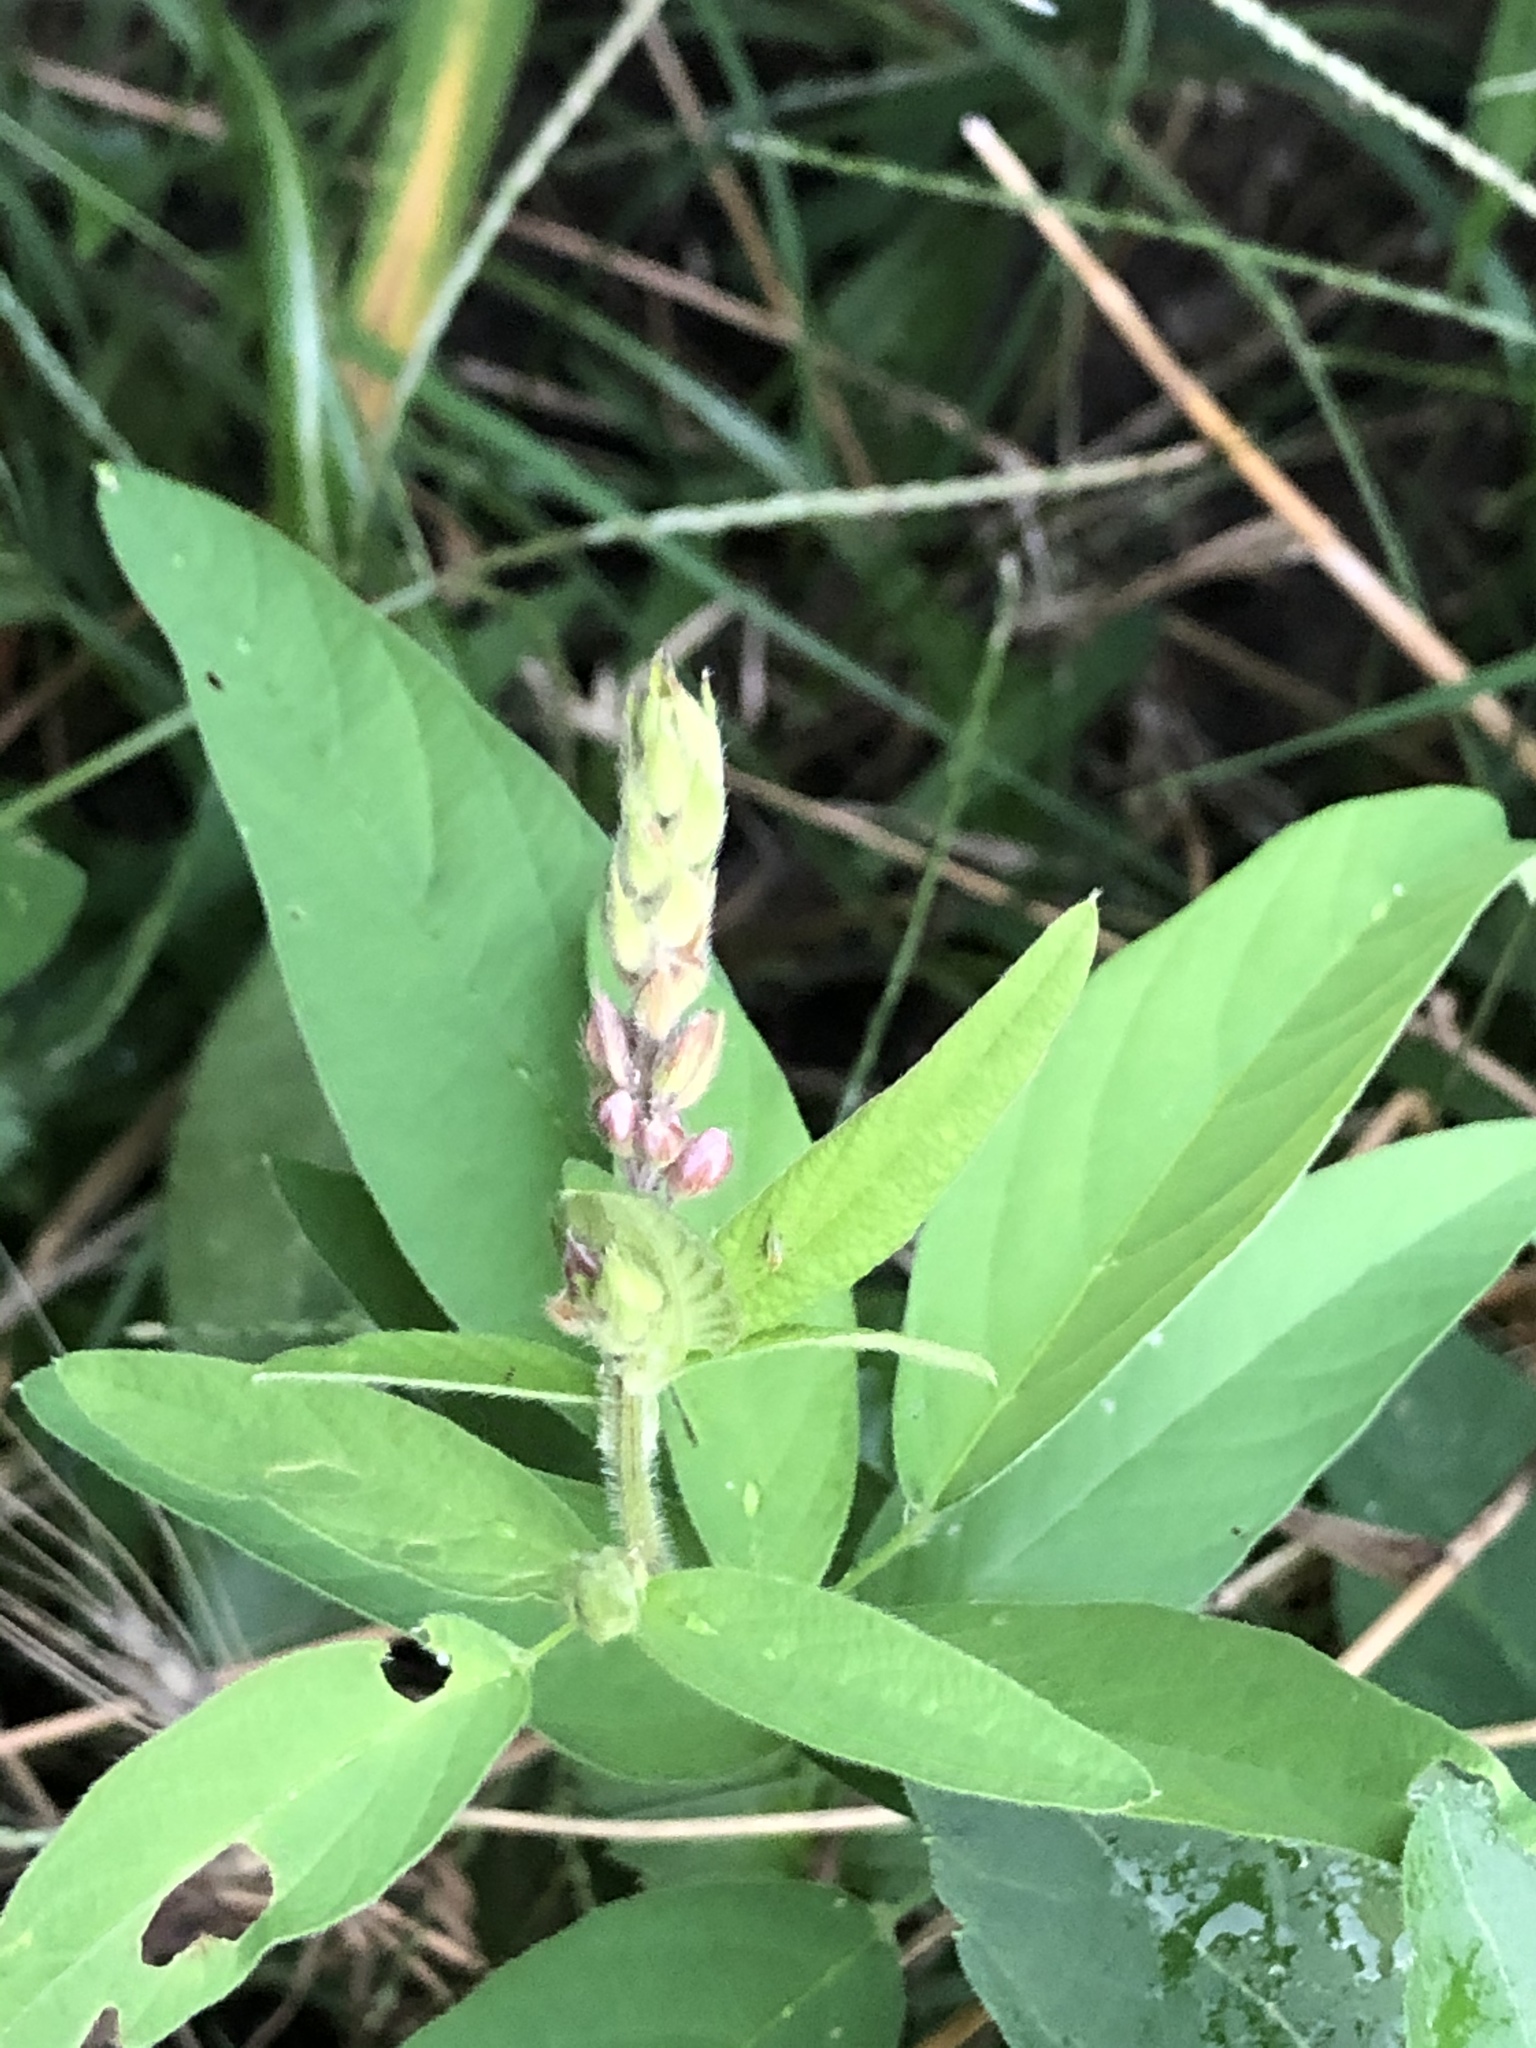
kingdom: Plantae
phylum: Tracheophyta
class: Magnoliopsida
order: Fabales
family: Fabaceae
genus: Desmodium
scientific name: Desmodium canadense
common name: Canada tick-trefoil
